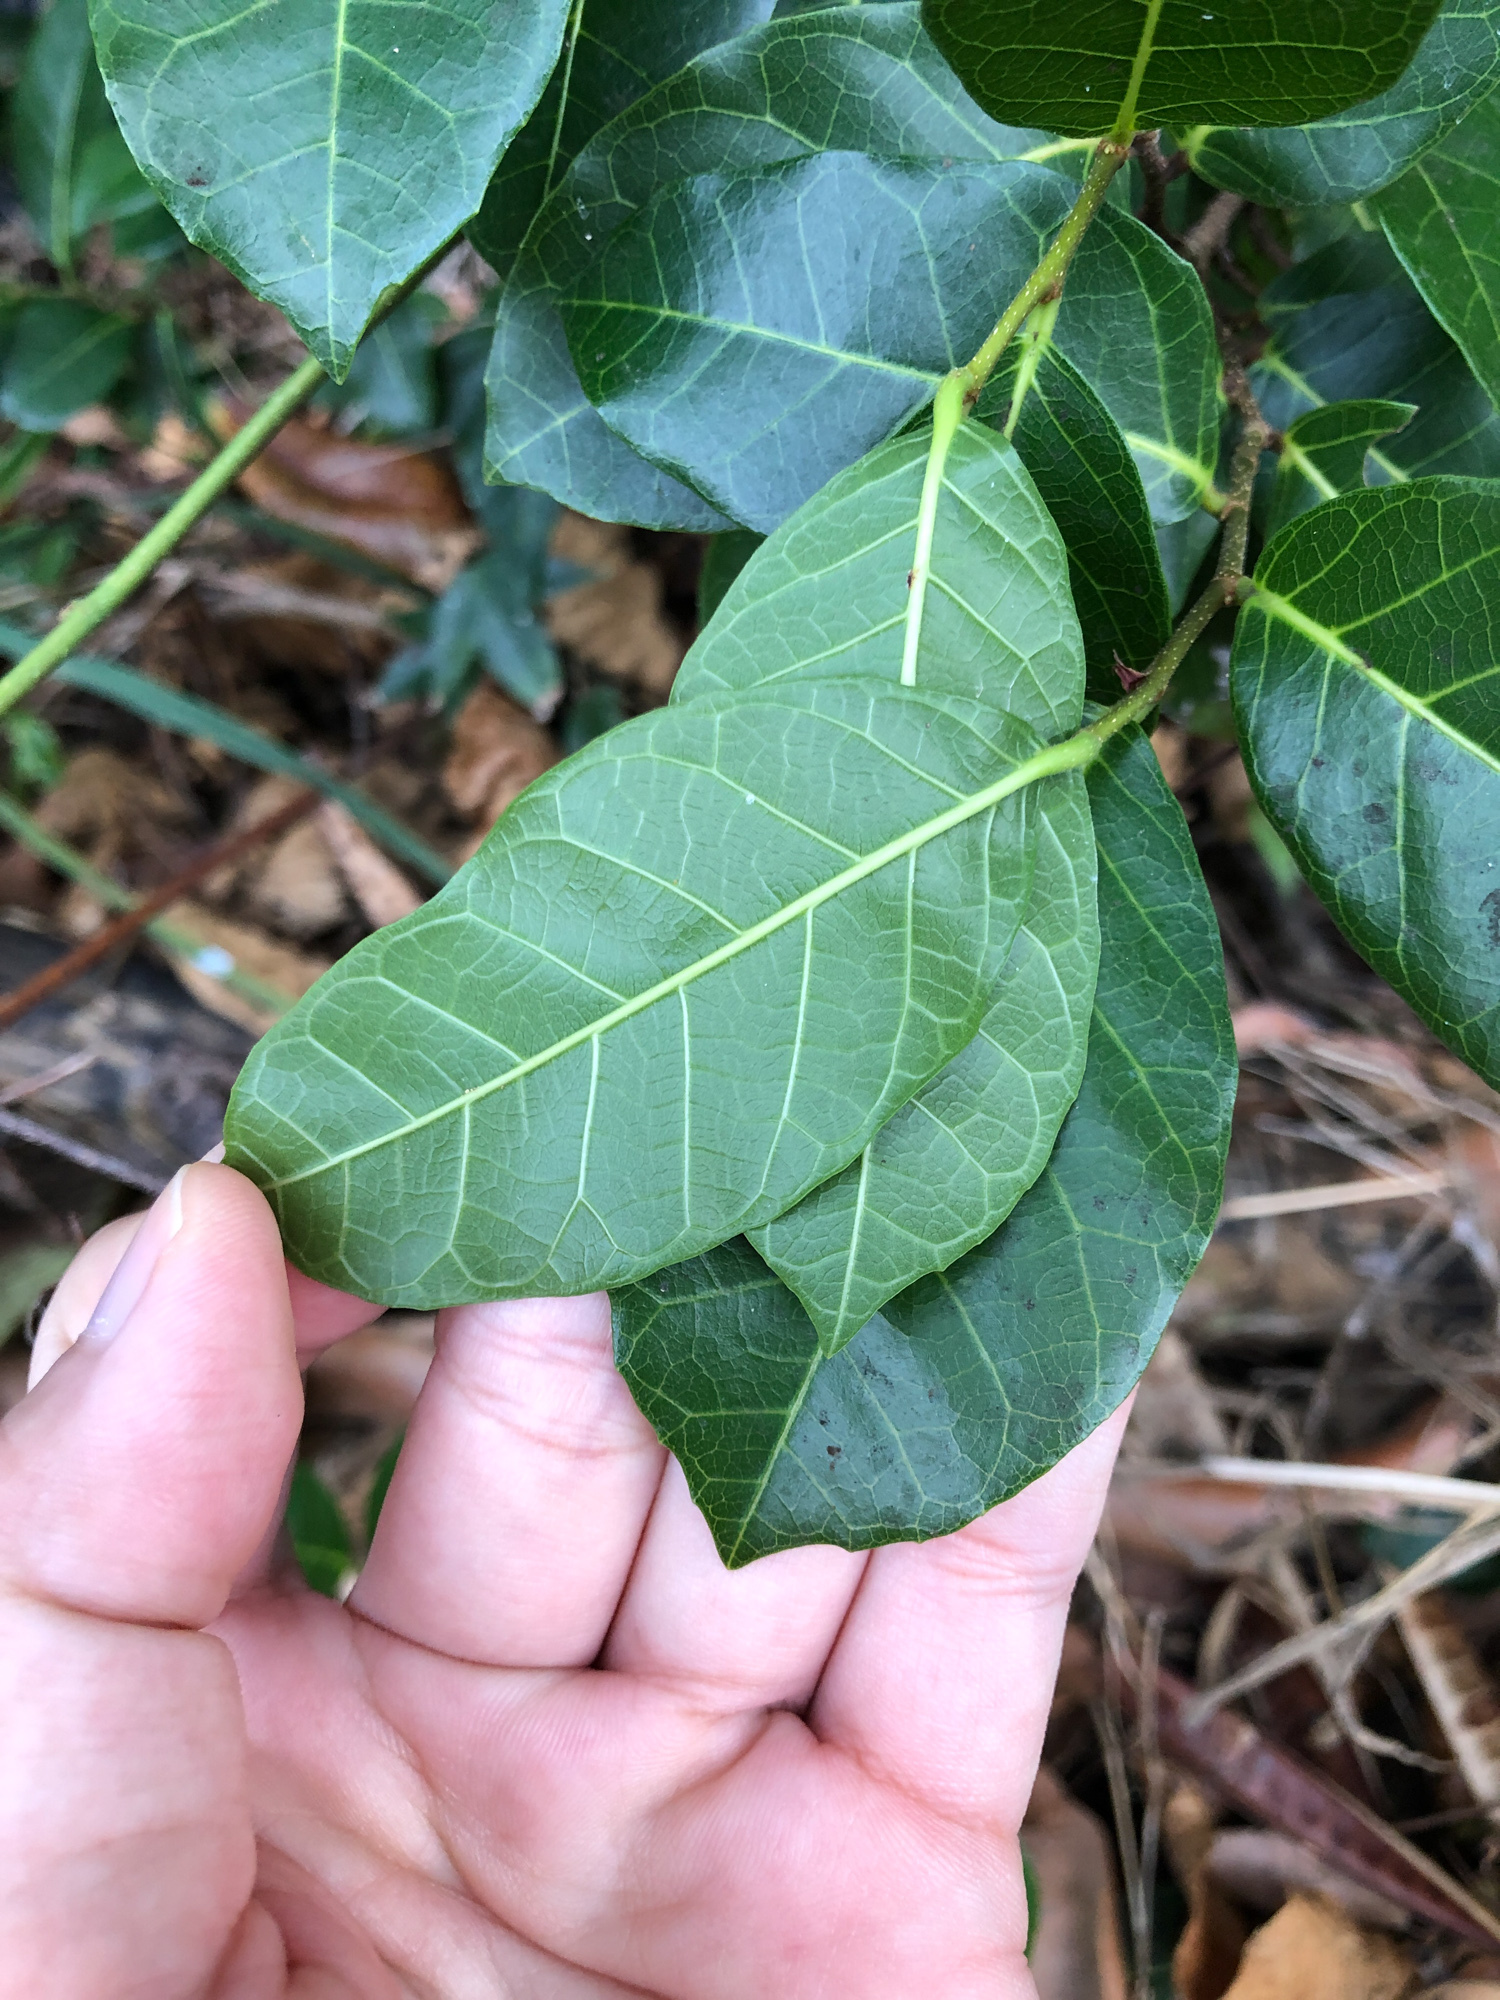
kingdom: Plantae
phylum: Tracheophyta
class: Magnoliopsida
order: Rosales
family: Moraceae
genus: Malaisia
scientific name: Malaisia scandens
